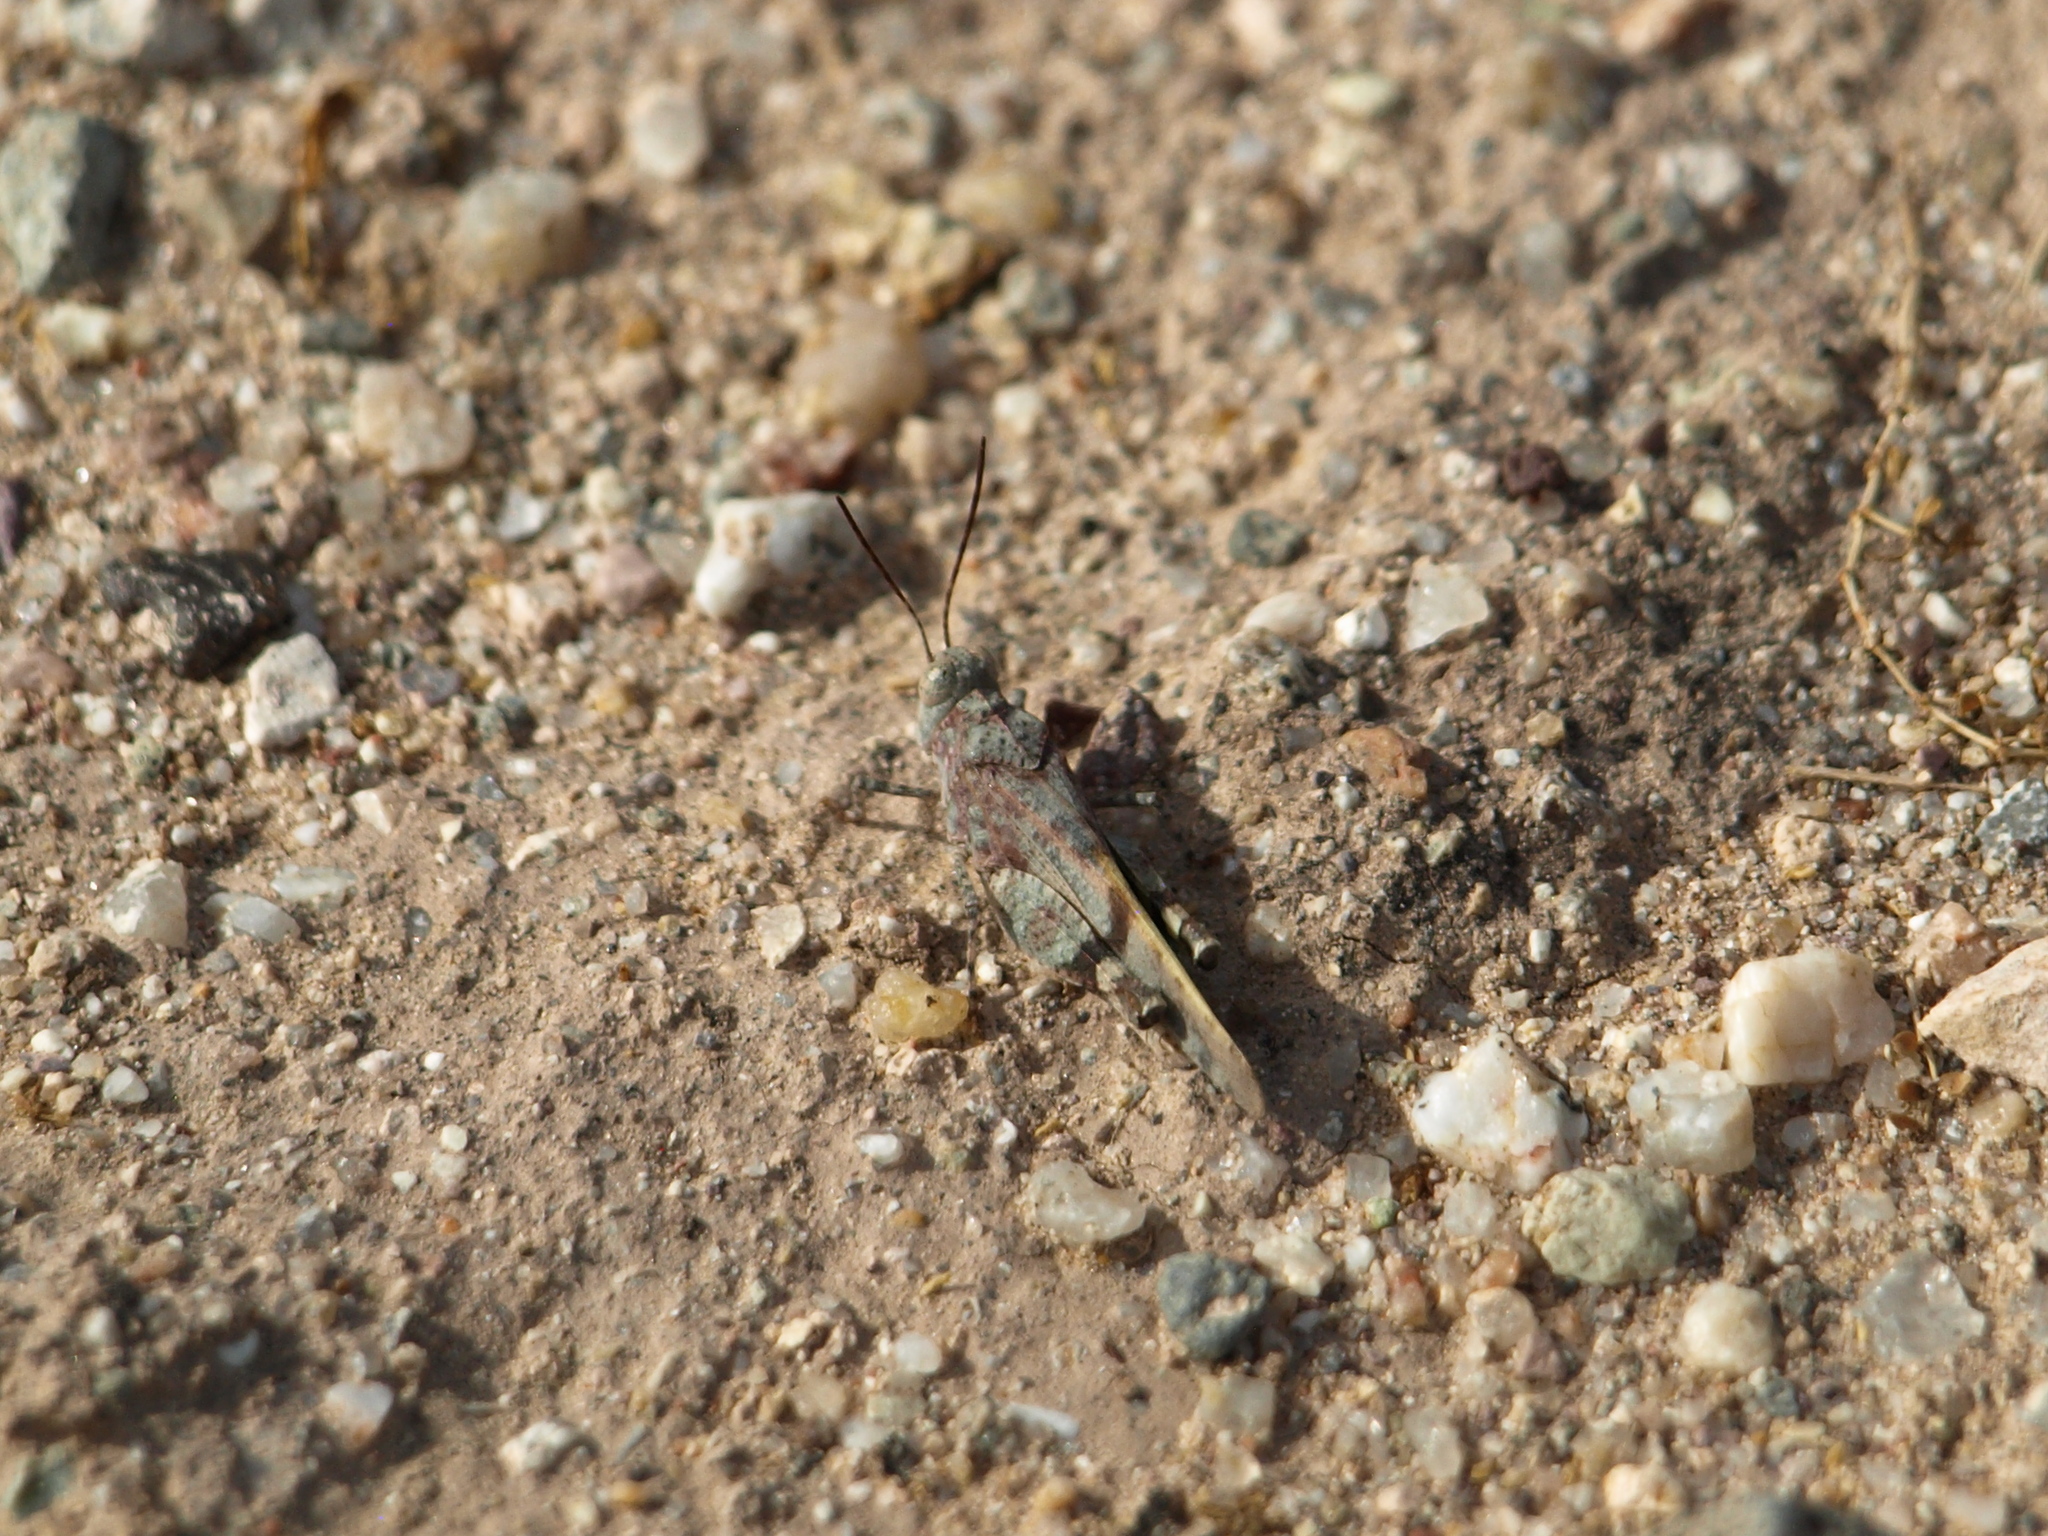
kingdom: Animalia
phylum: Arthropoda
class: Insecta
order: Orthoptera
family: Acrididae
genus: Lactista
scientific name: Lactista azteca
